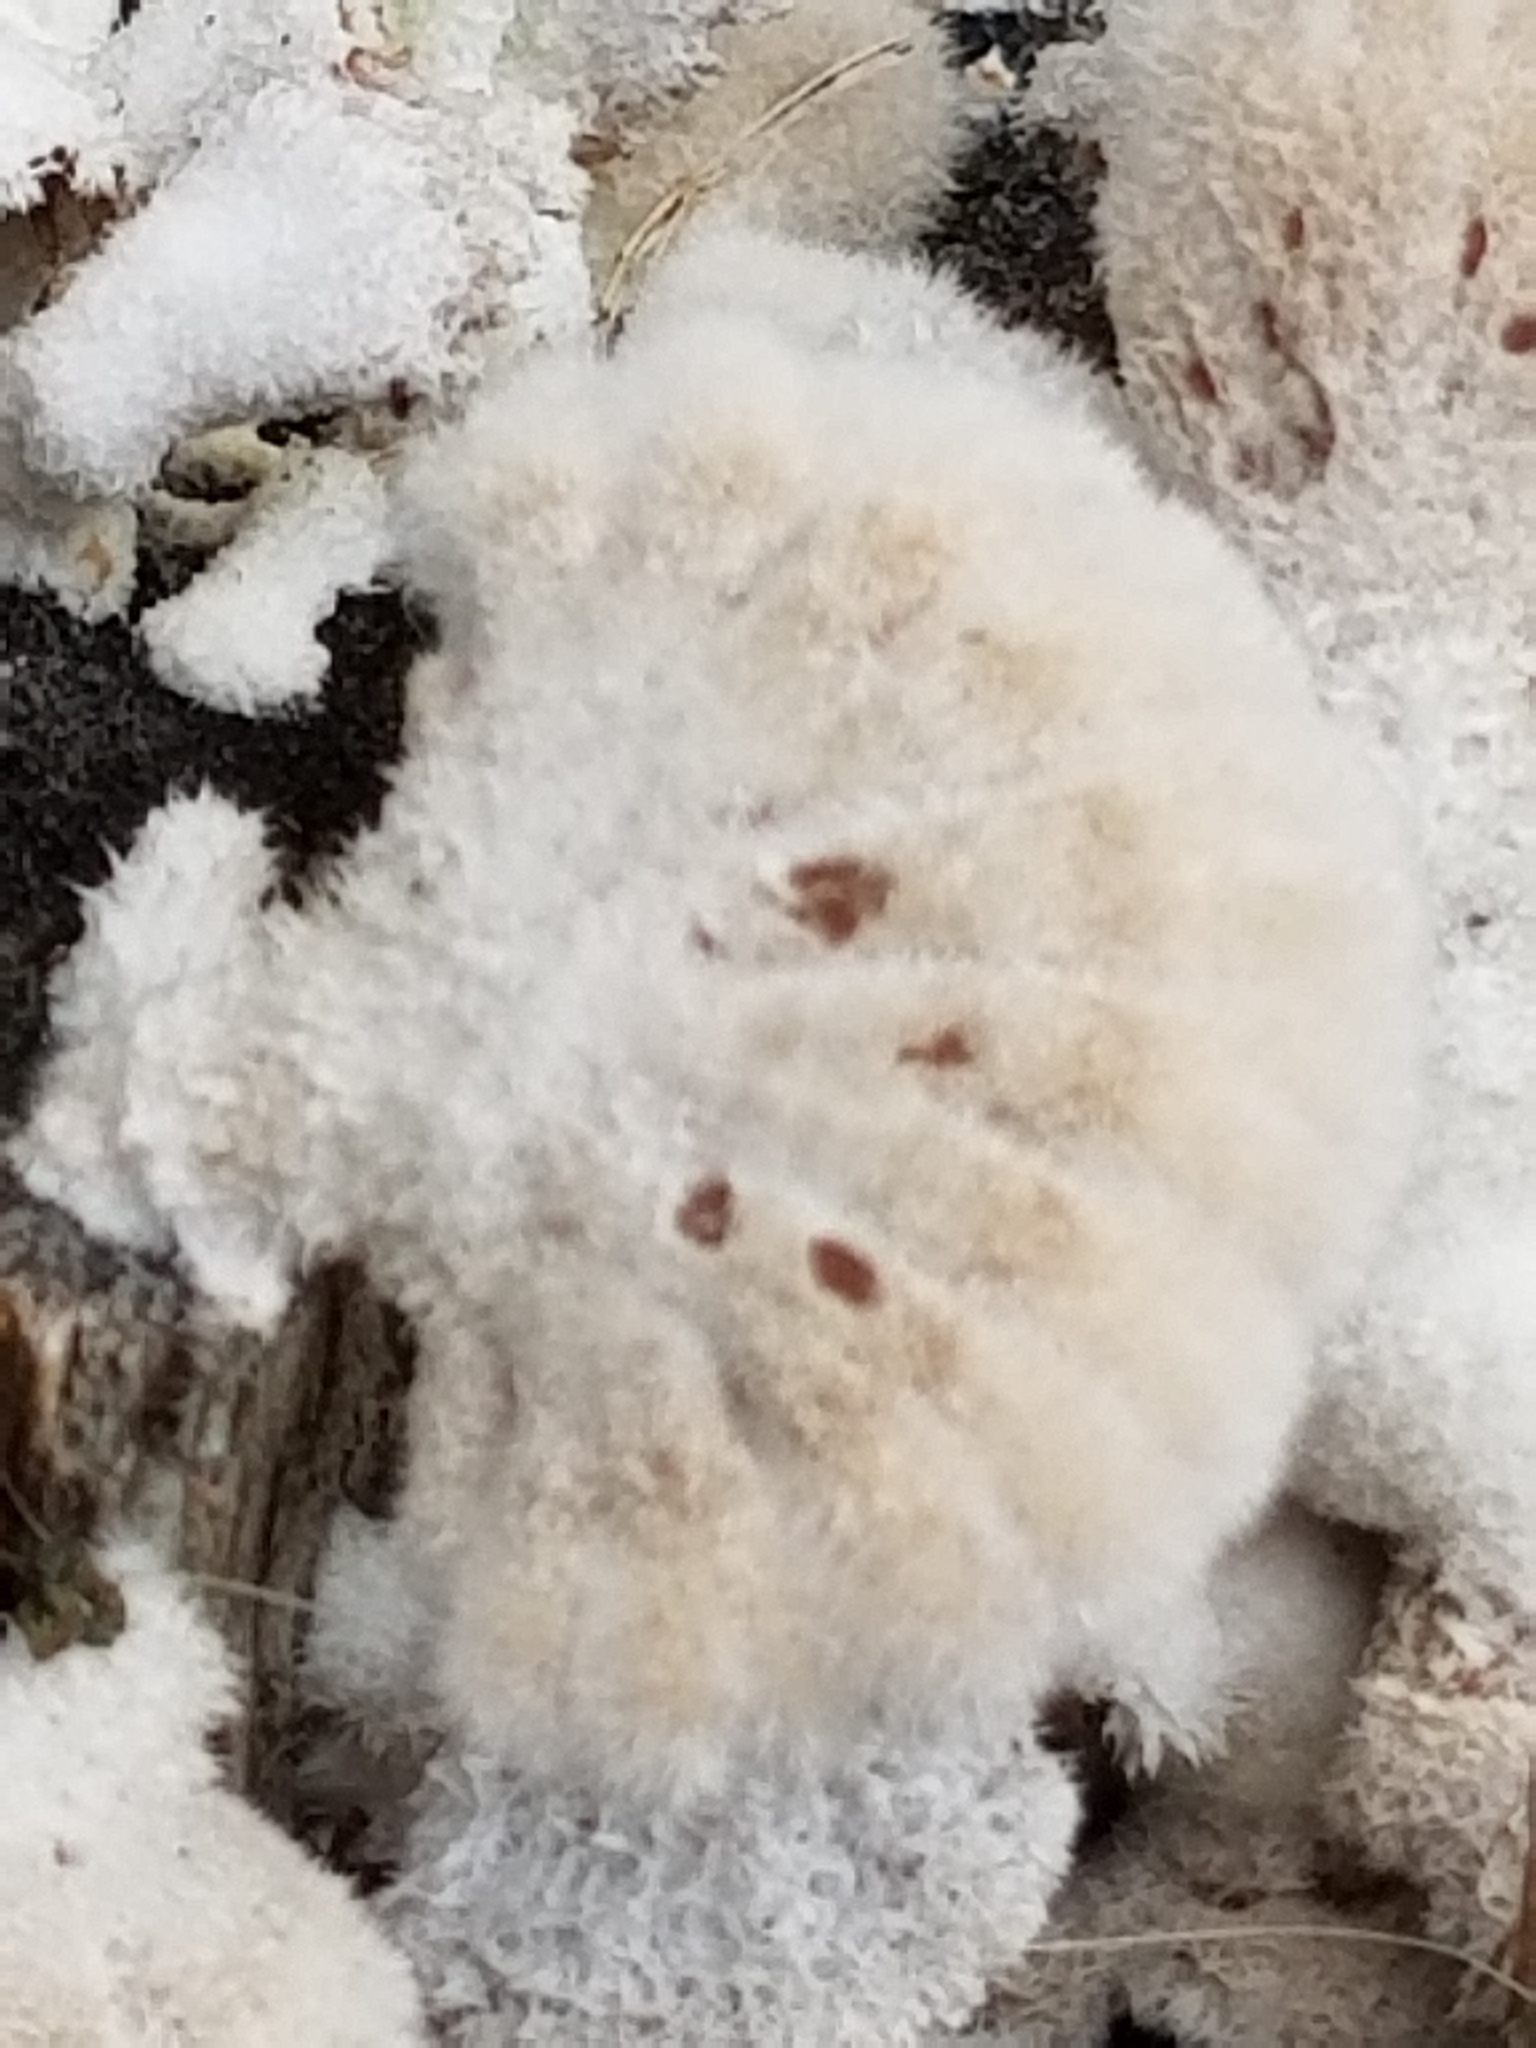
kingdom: Fungi
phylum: Basidiomycota
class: Agaricomycetes
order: Agaricales
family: Schizophyllaceae
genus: Schizophyllum
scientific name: Schizophyllum commune
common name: Common porecrust
